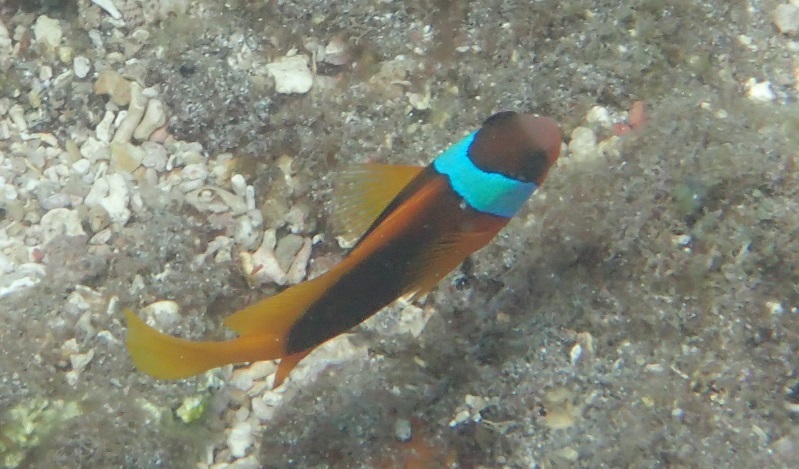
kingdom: Animalia
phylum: Chordata
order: Perciformes
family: Pomacentridae
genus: Amphiprion
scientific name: Amphiprion melanopus
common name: Black anemonefish
